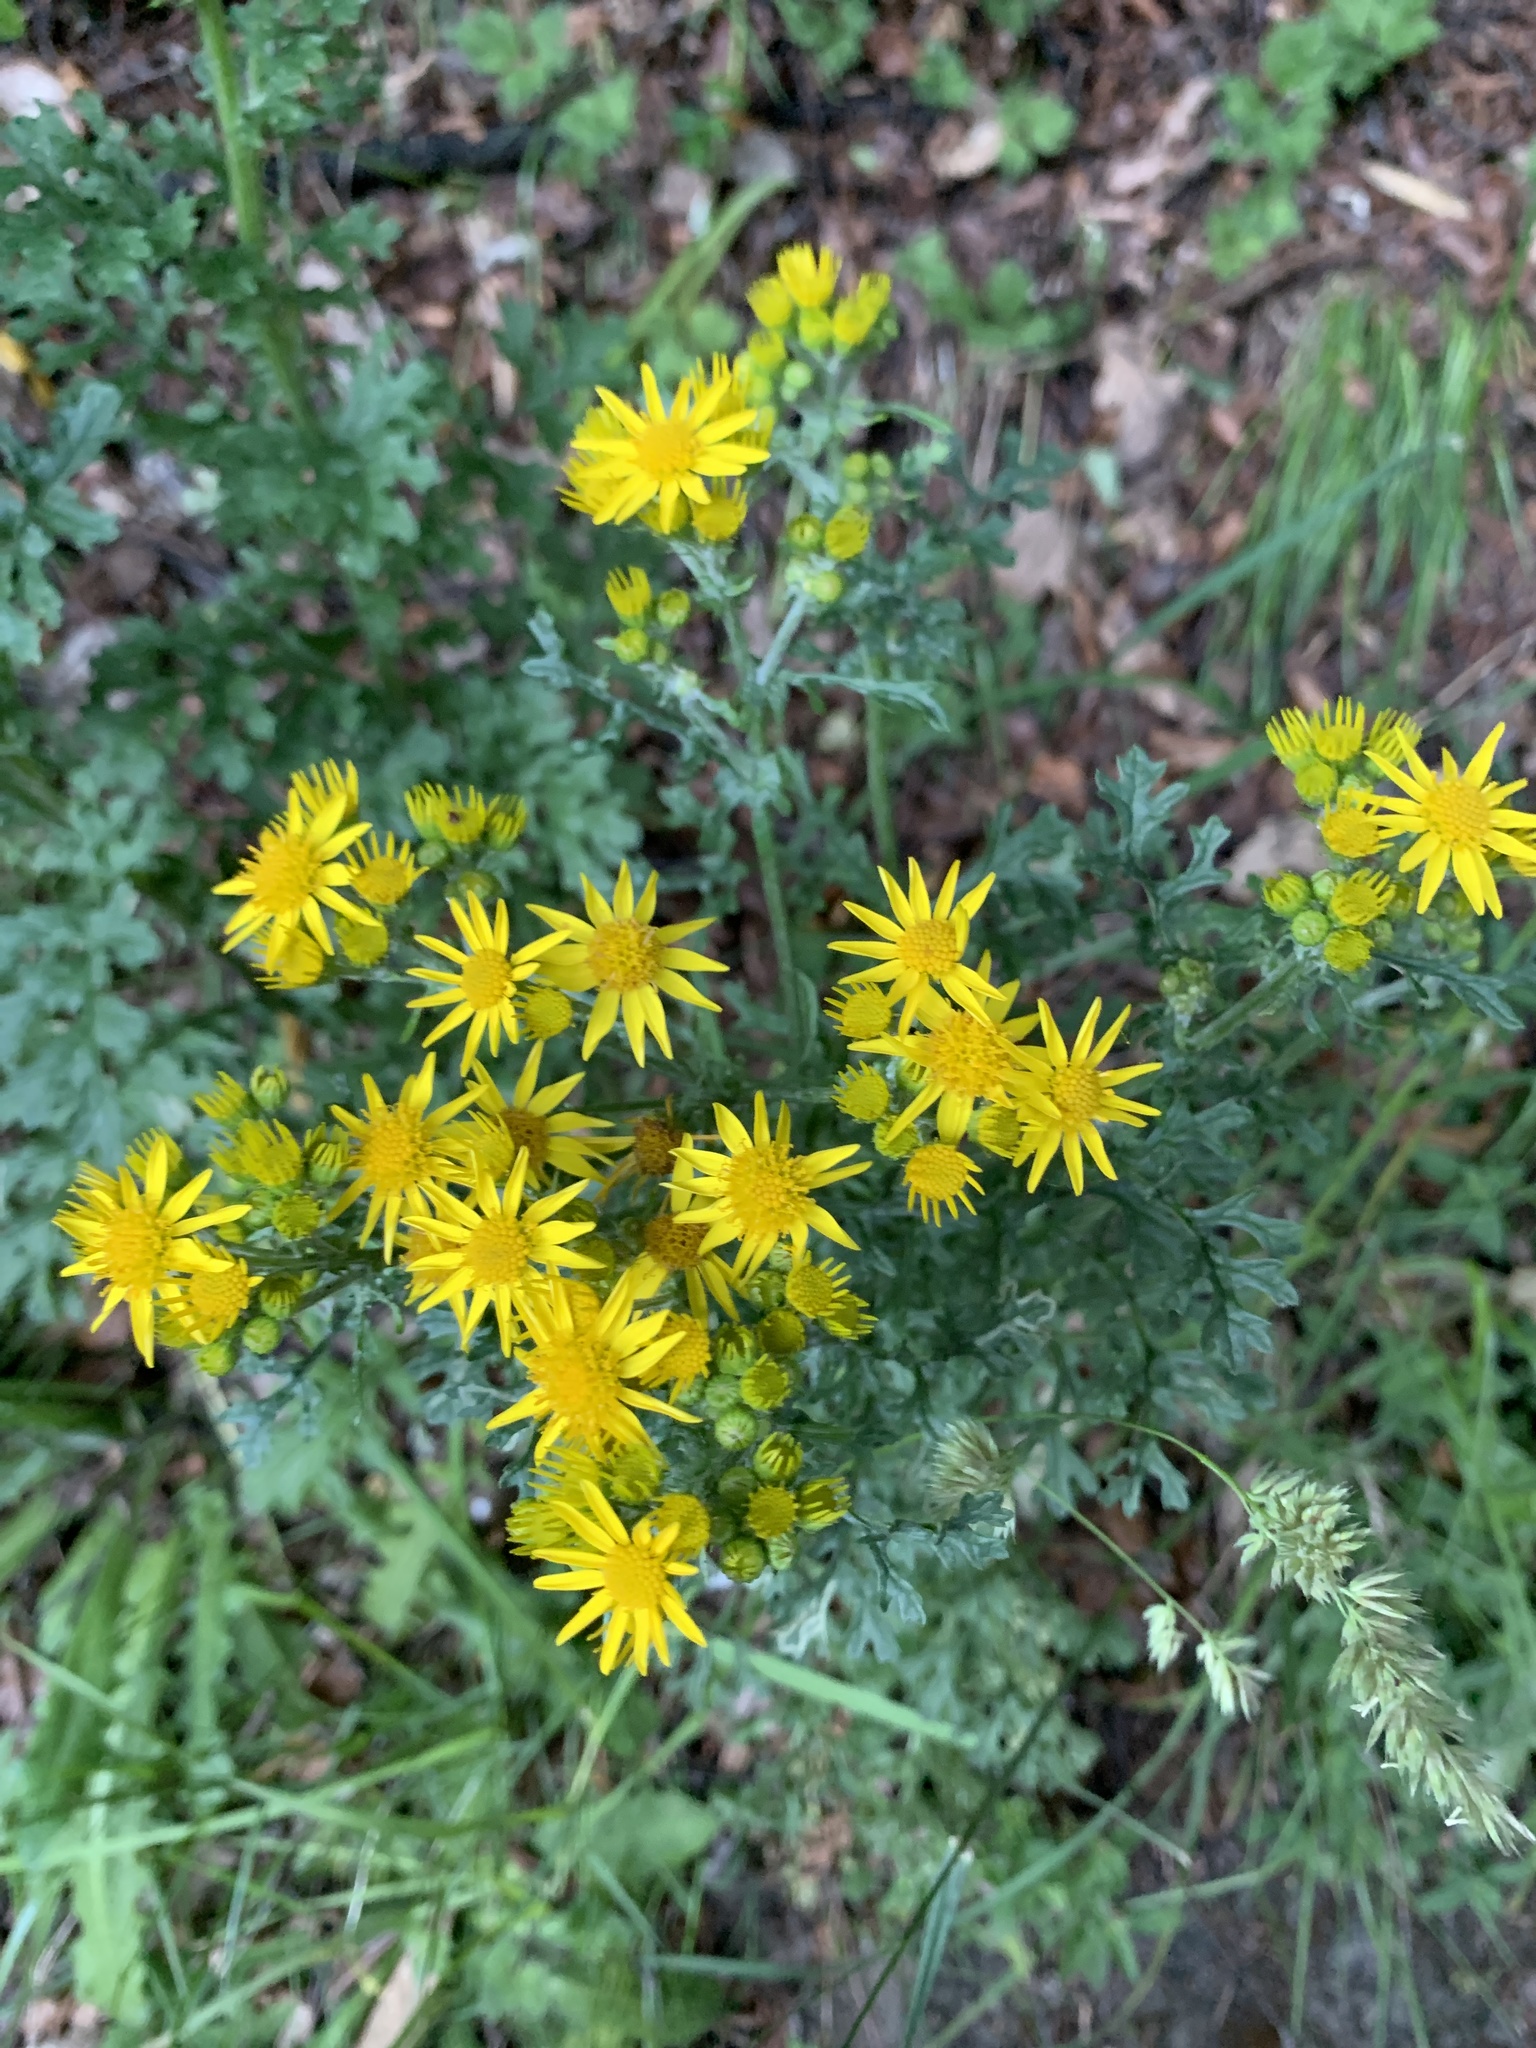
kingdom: Plantae
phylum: Tracheophyta
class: Magnoliopsida
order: Asterales
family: Asteraceae
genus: Jacobaea
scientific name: Jacobaea vulgaris
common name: Stinking willie
